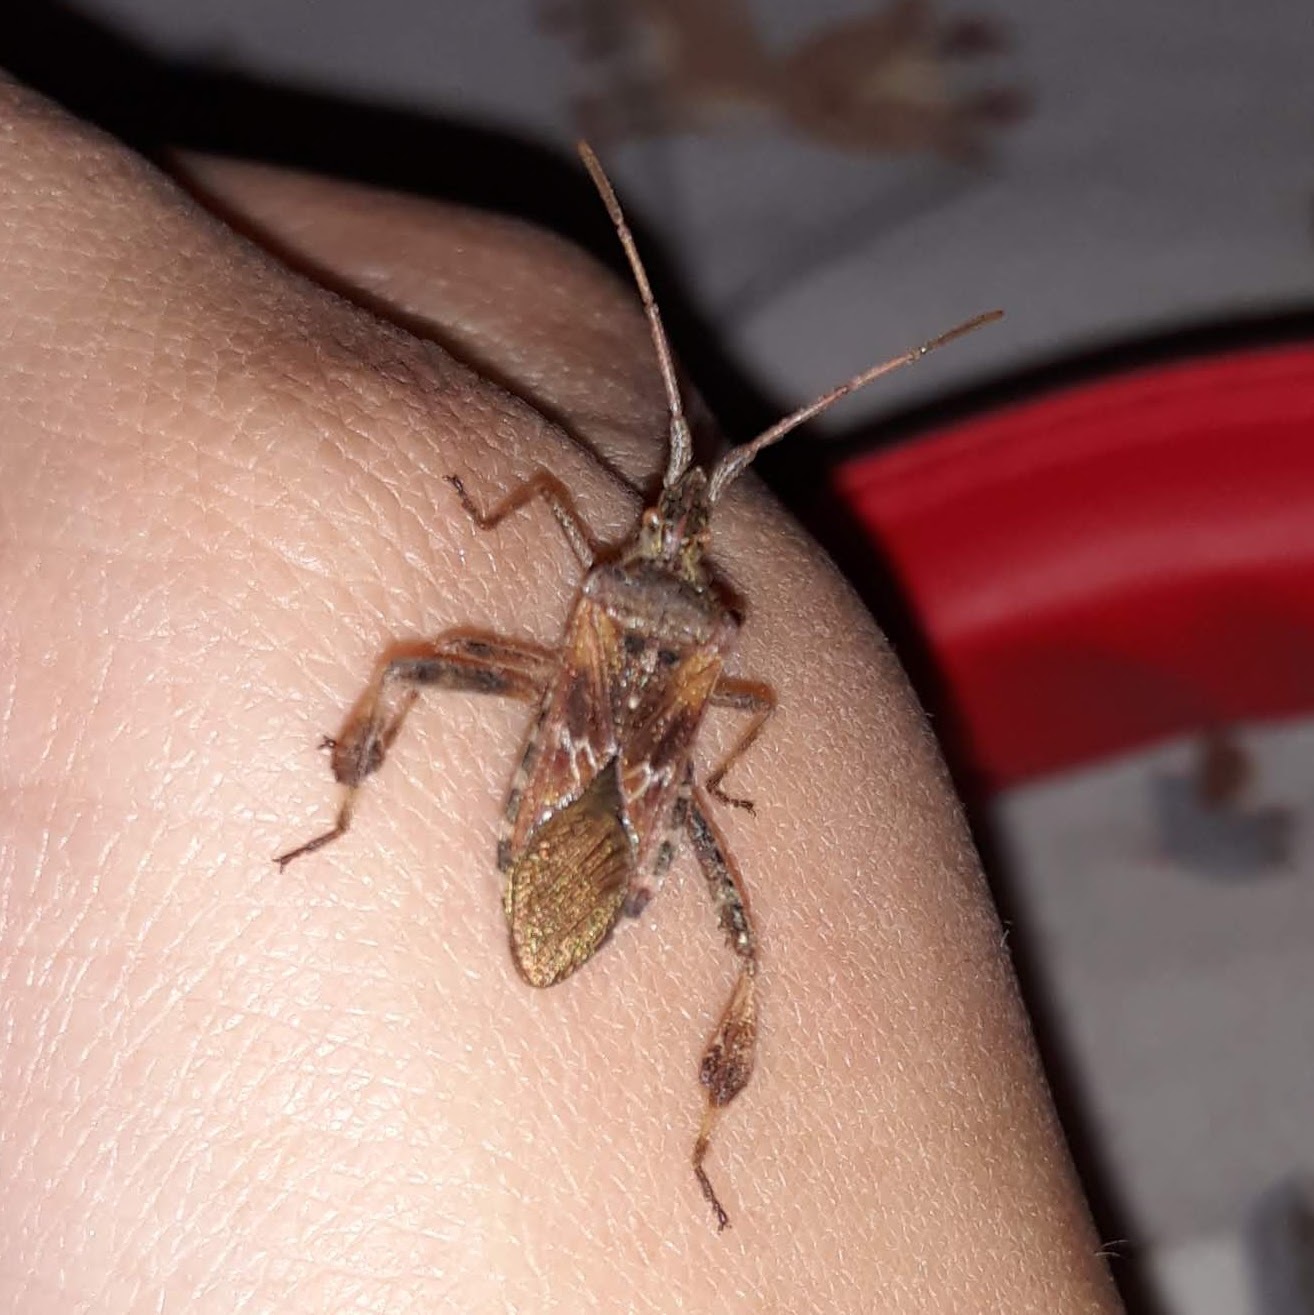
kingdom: Animalia
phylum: Arthropoda
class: Insecta
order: Hemiptera
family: Coreidae
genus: Leptoglossus
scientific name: Leptoglossus occidentalis
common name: Western conifer-seed bug
